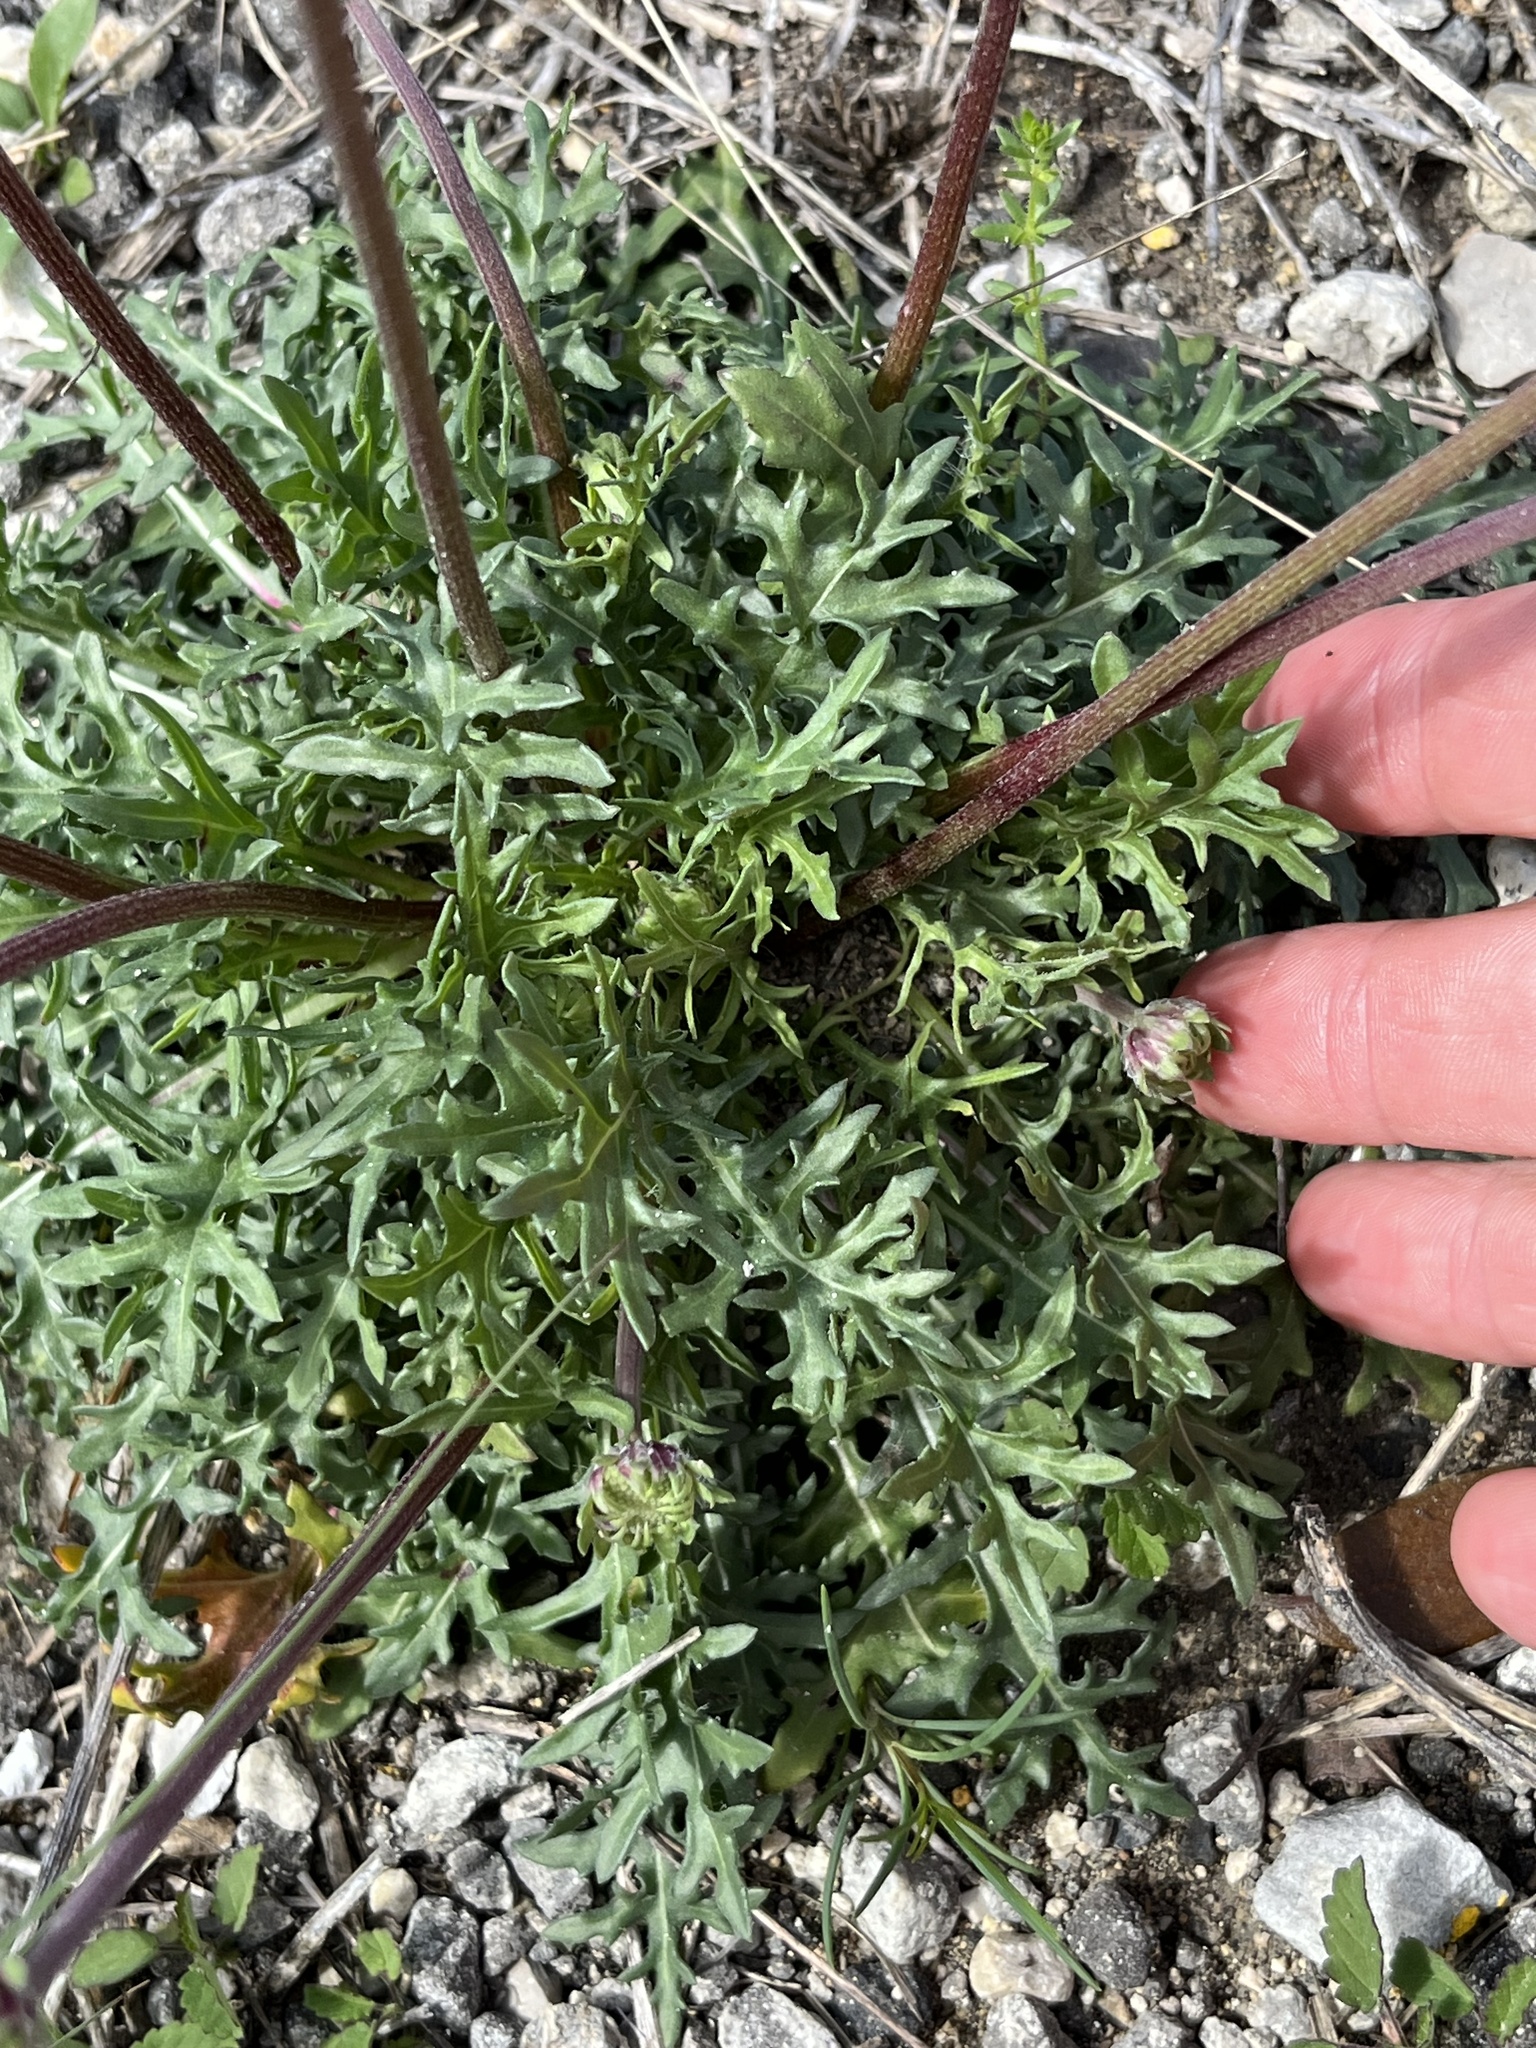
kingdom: Plantae
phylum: Tracheophyta
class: Magnoliopsida
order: Asterales
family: Asteraceae
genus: Gaillardia
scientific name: Gaillardia suavis
